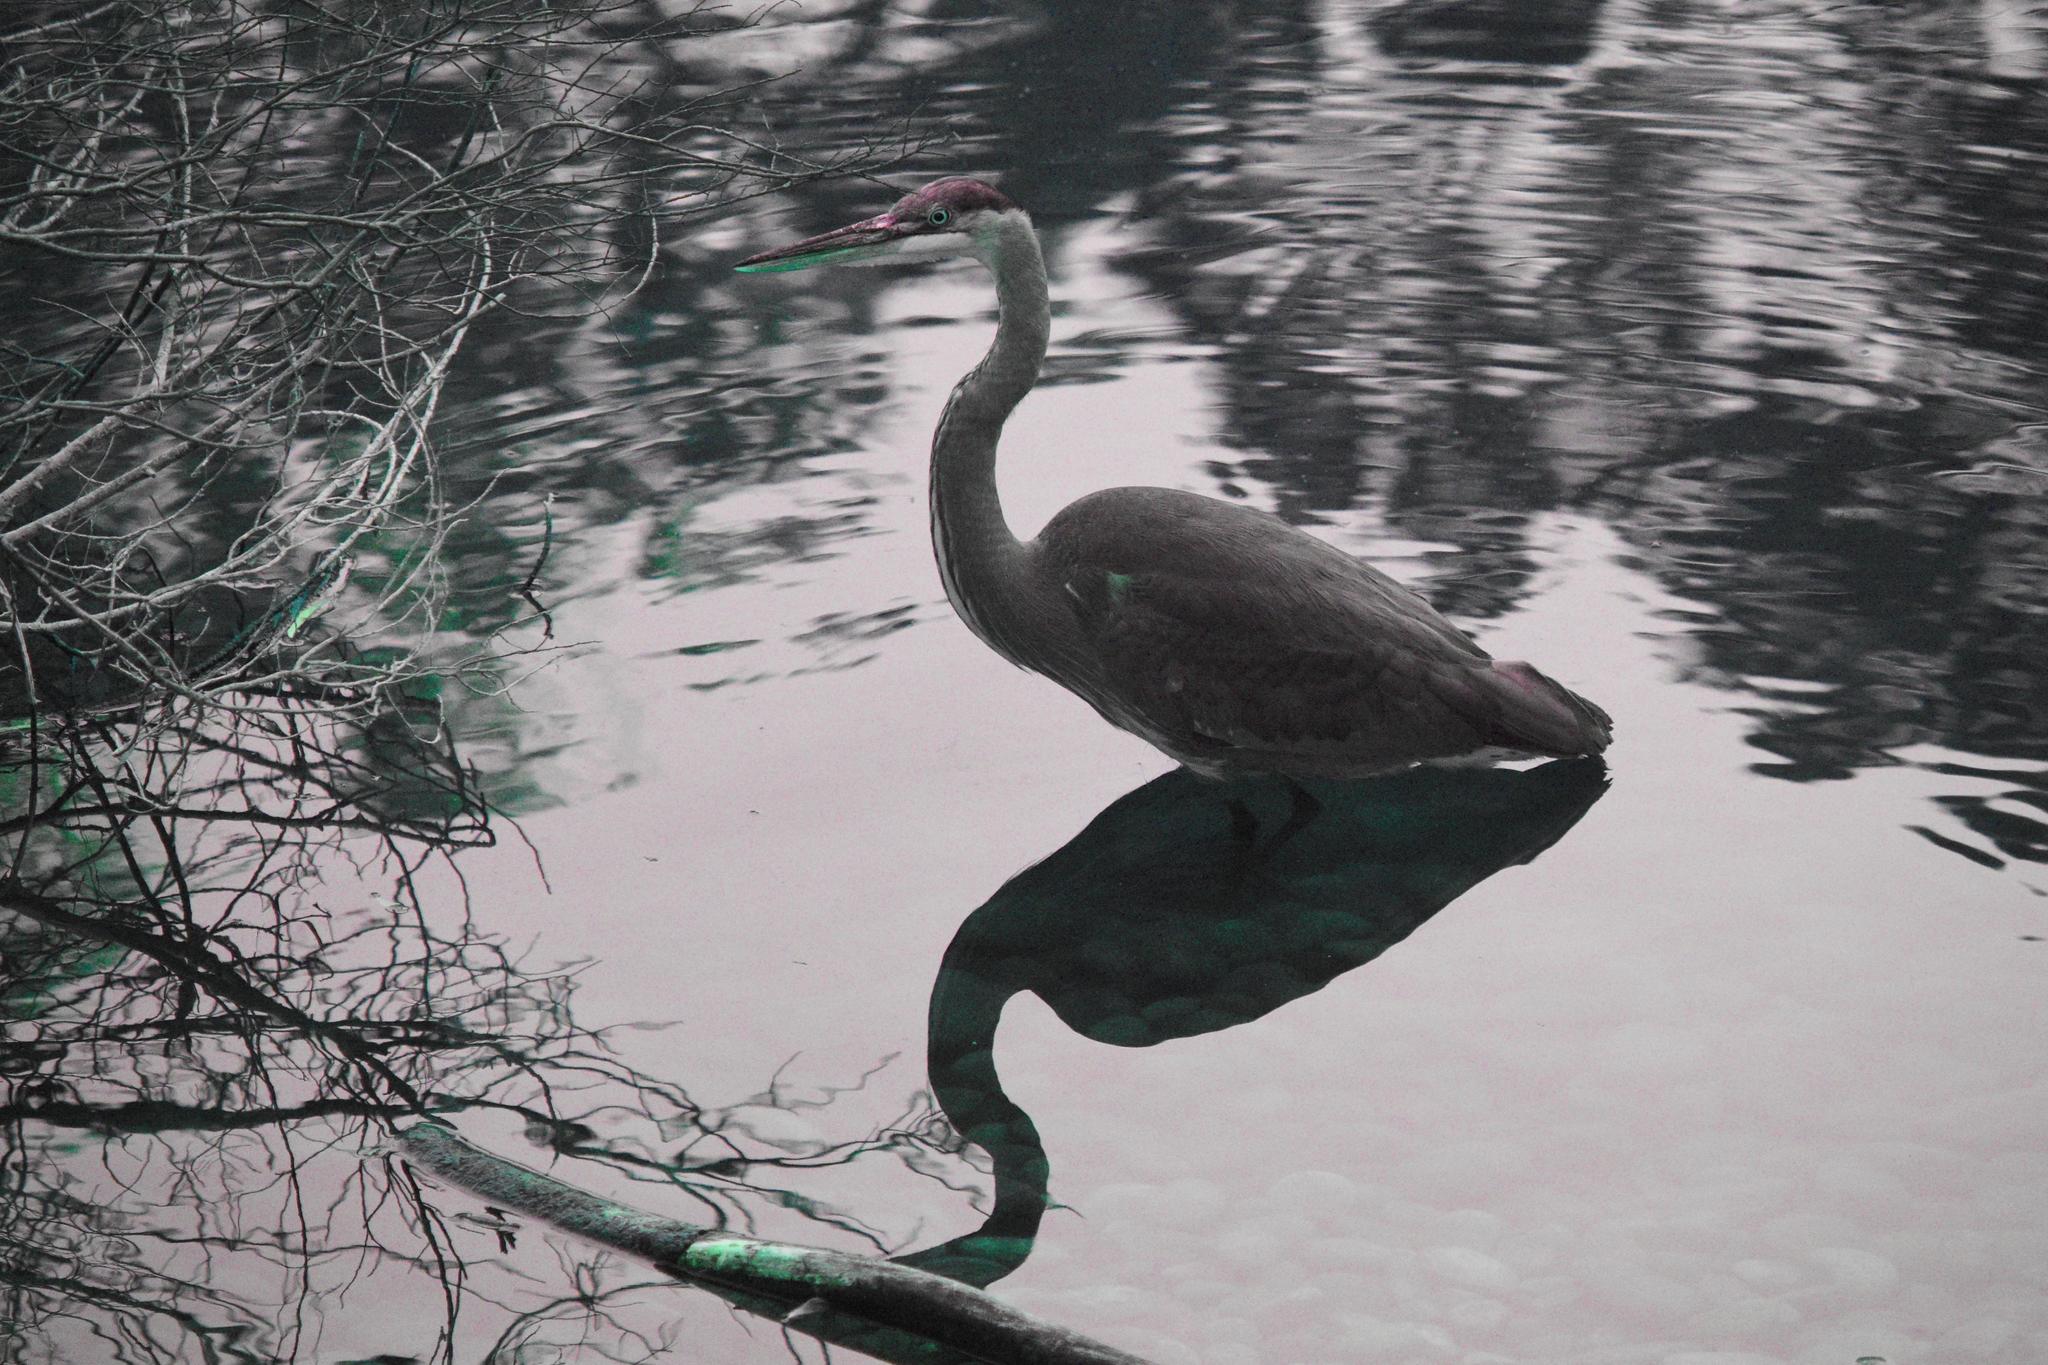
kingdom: Animalia
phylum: Chordata
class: Aves
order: Pelecaniformes
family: Ardeidae
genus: Ardea
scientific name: Ardea herodias
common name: Great blue heron
